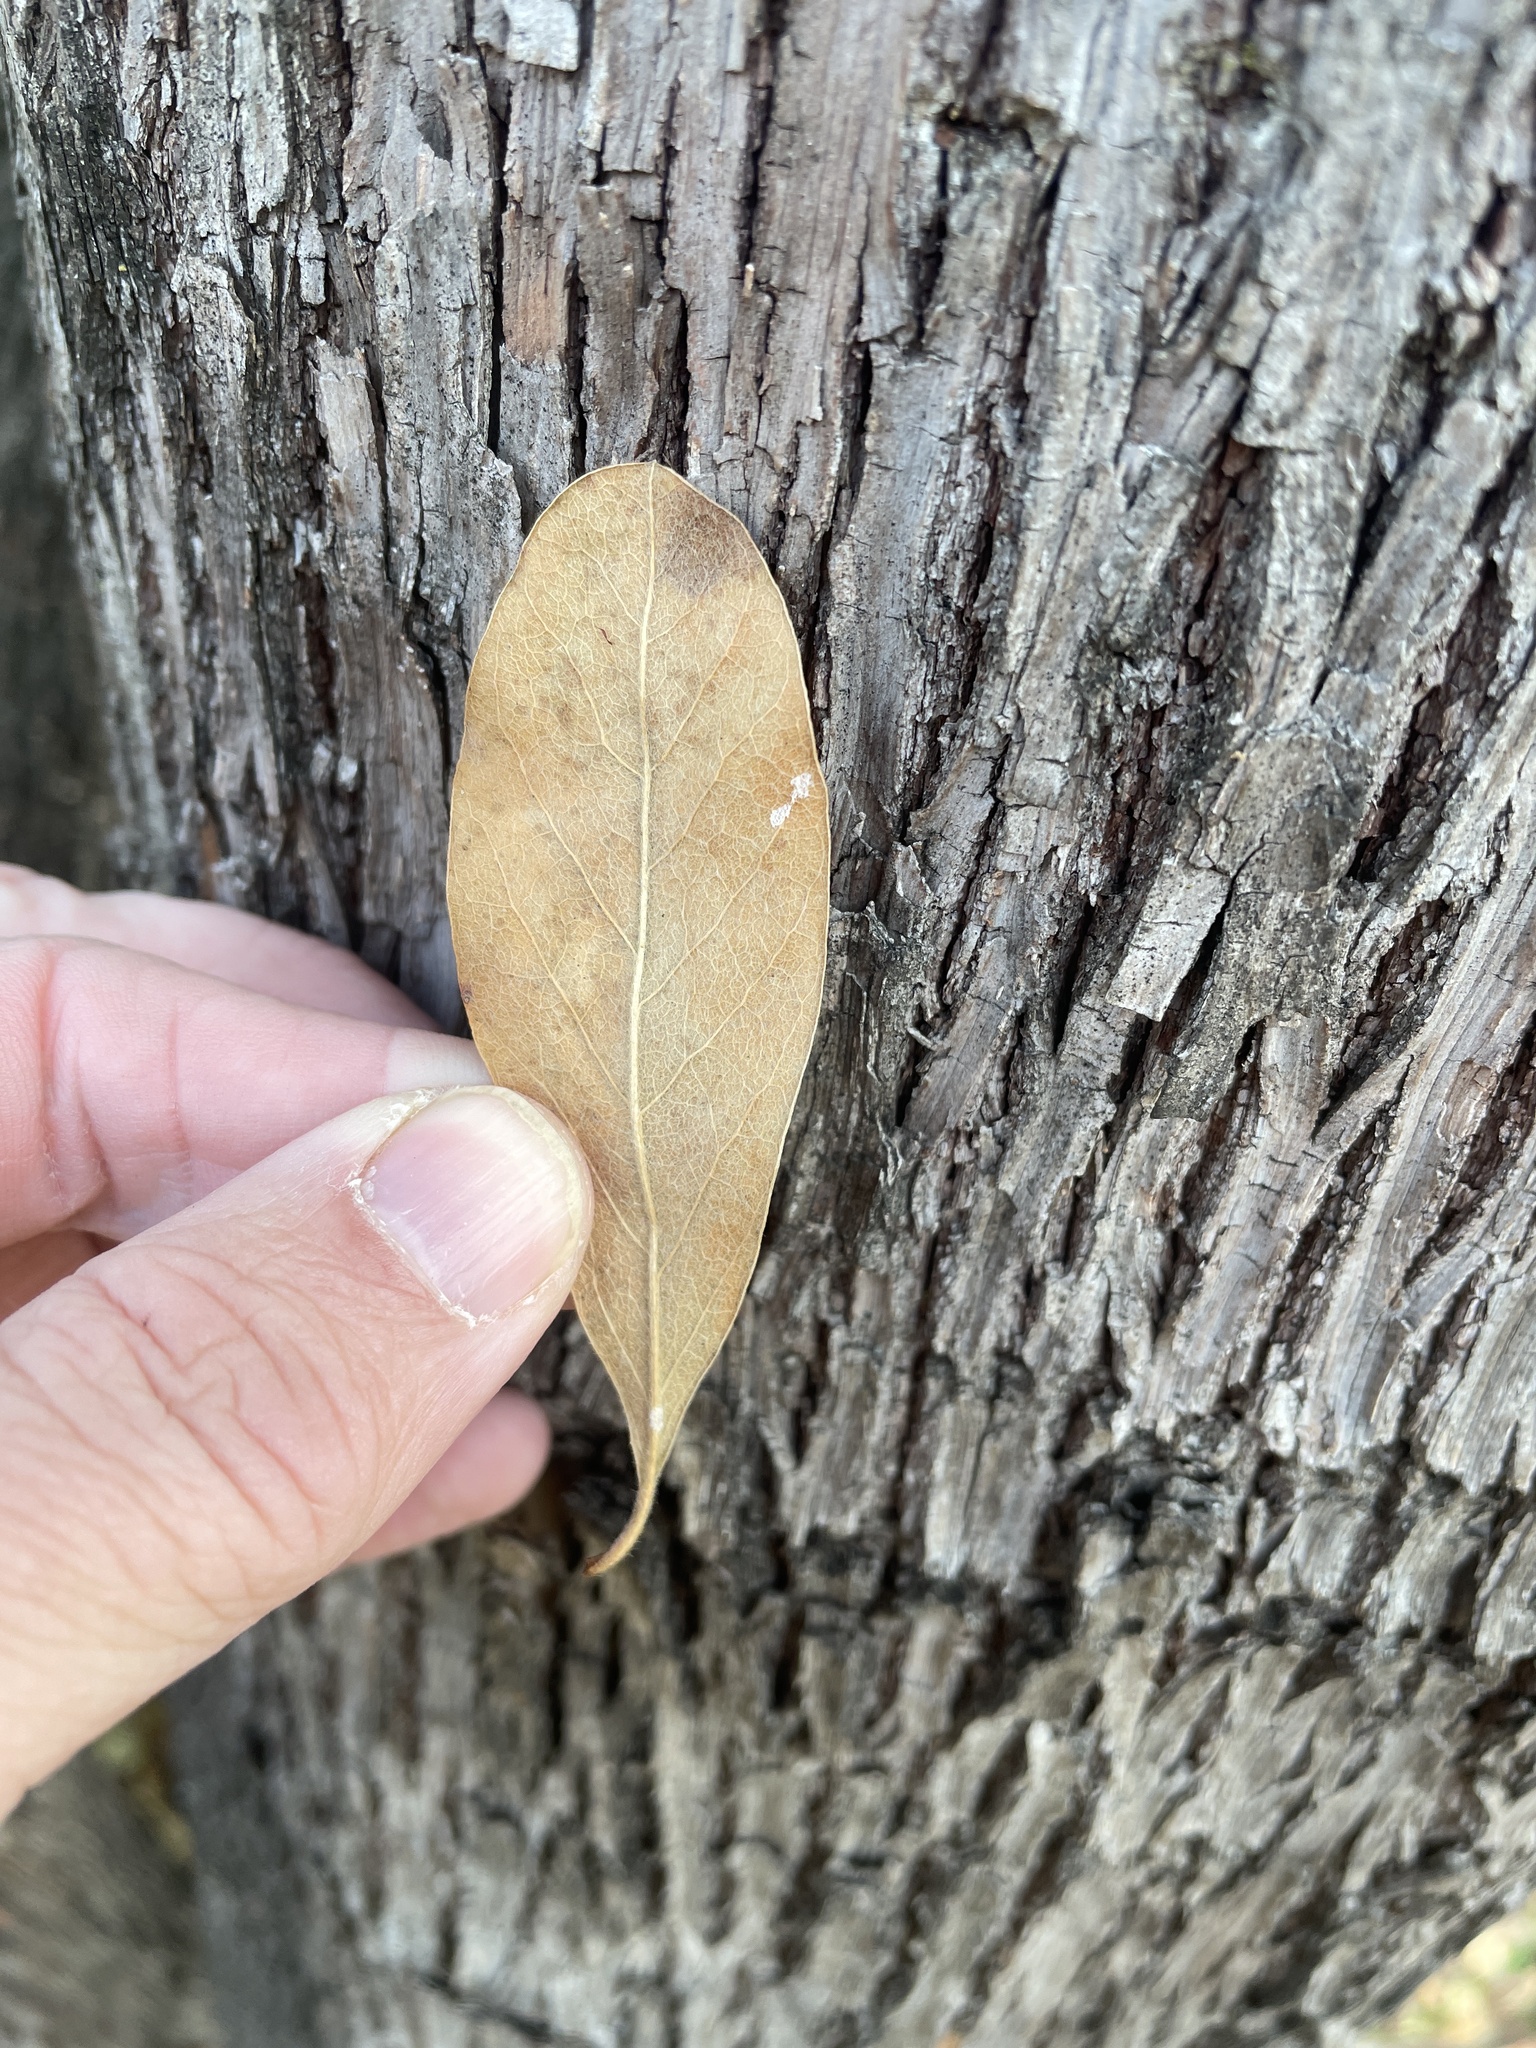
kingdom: Plantae
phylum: Tracheophyta
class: Magnoliopsida
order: Ericales
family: Sapotaceae
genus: Sideroxylon
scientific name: Sideroxylon lanuginosum
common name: Chittamwood
